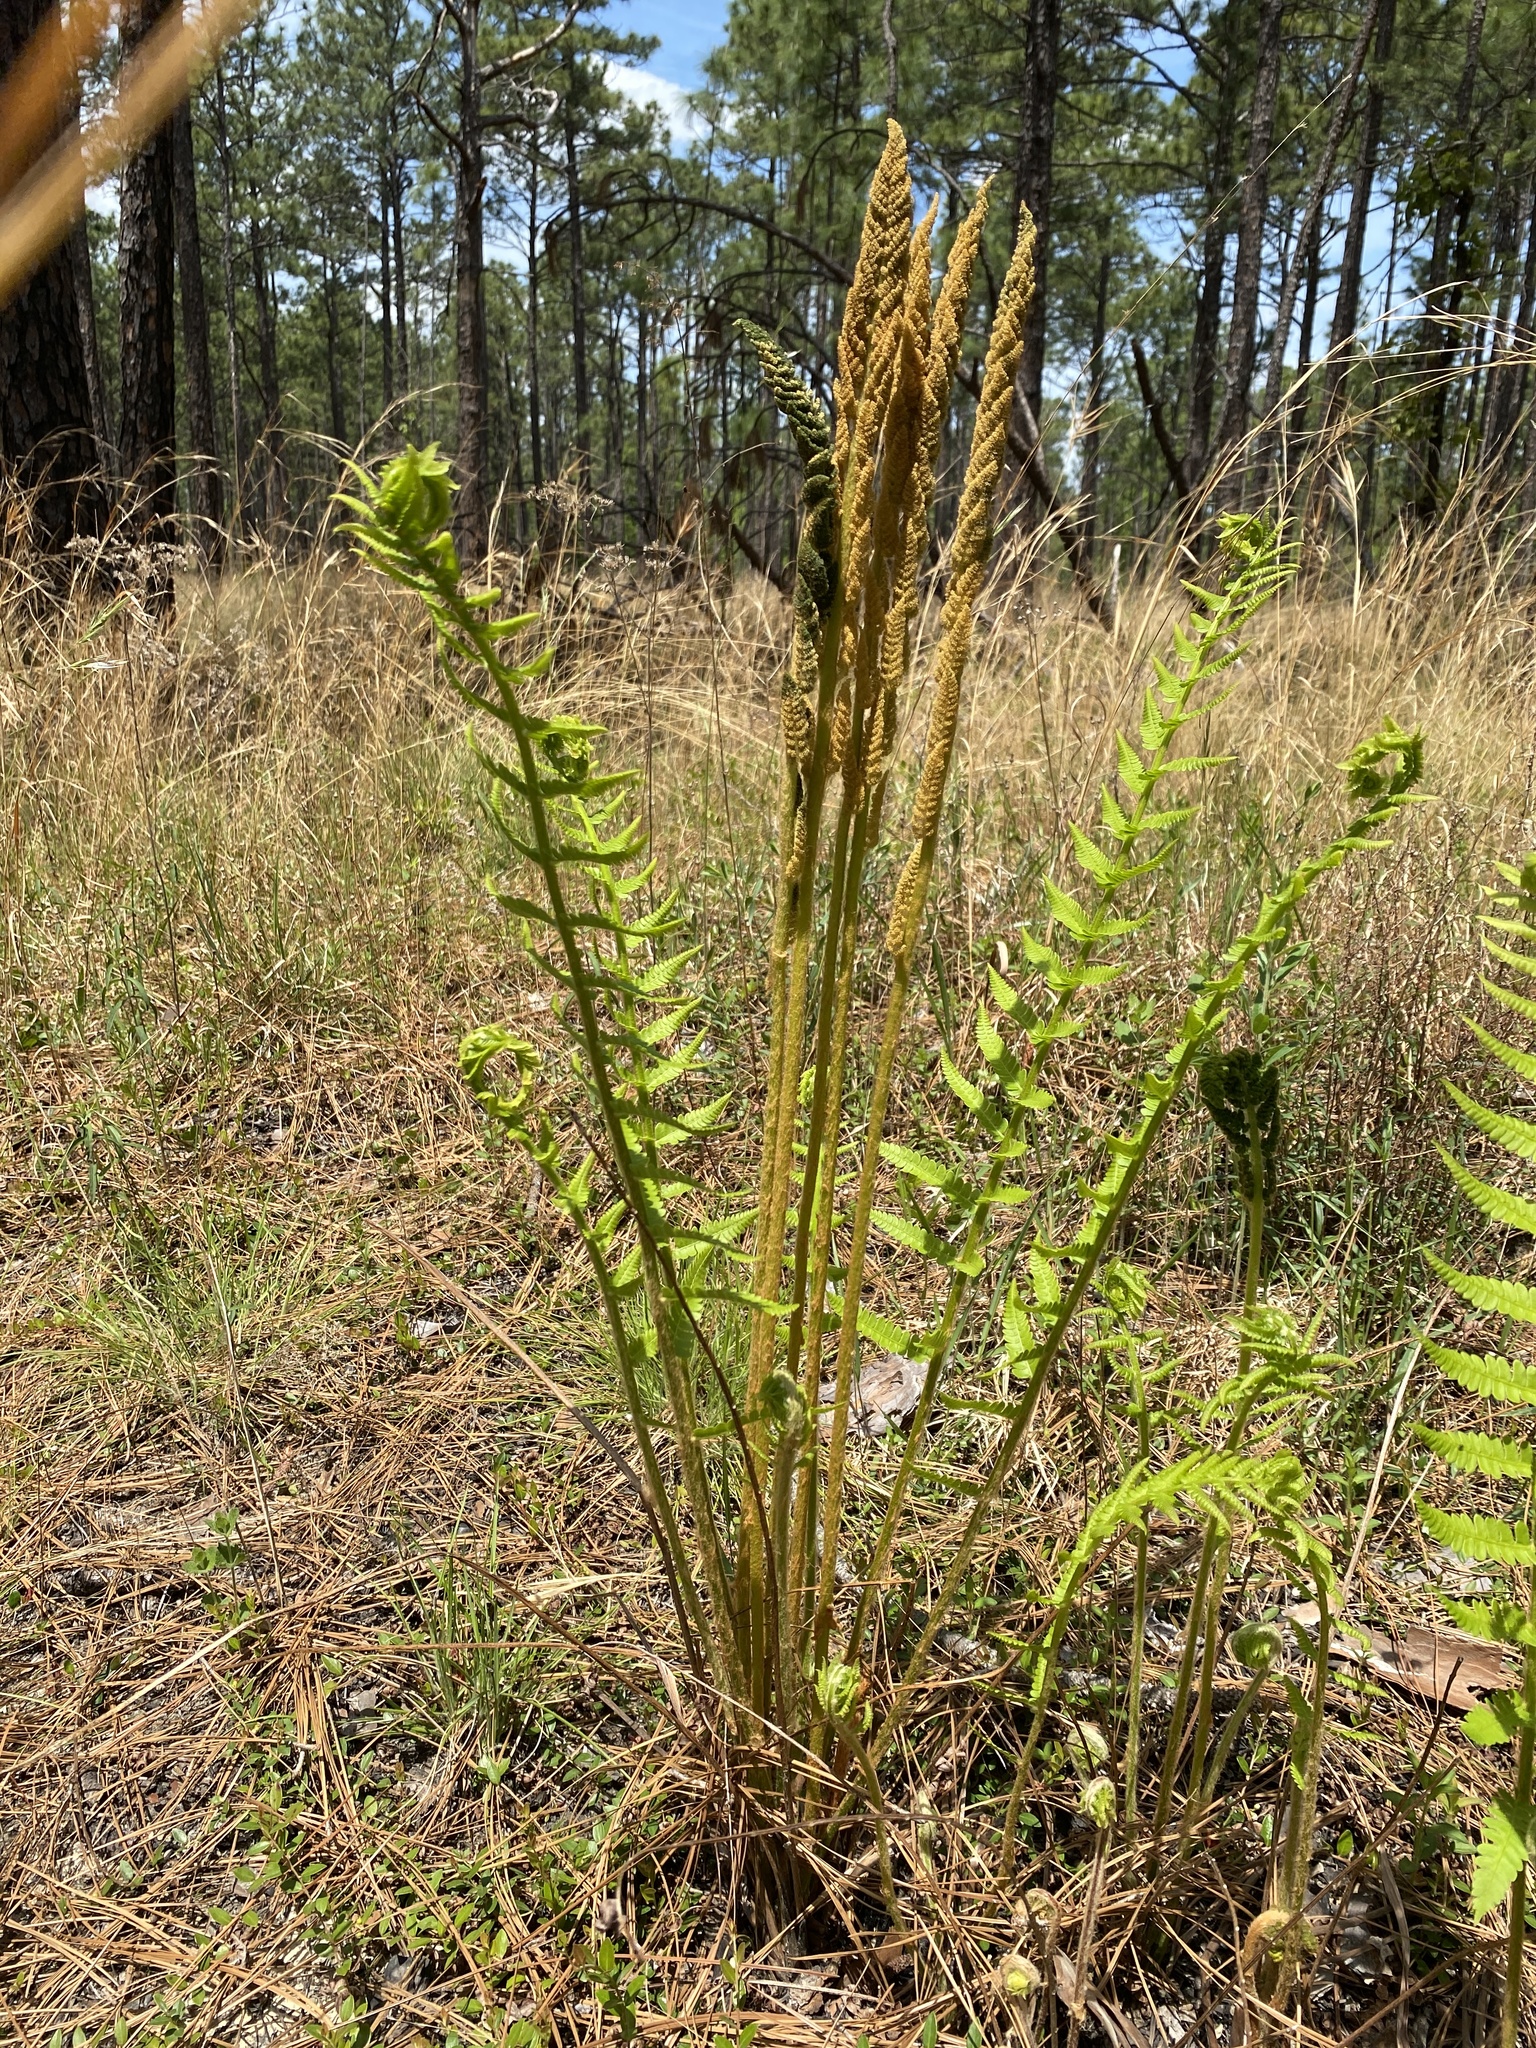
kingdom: Plantae
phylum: Tracheophyta
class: Polypodiopsida
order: Osmundales
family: Osmundaceae
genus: Osmundastrum
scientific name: Osmundastrum cinnamomeum
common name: Cinnamon fern
